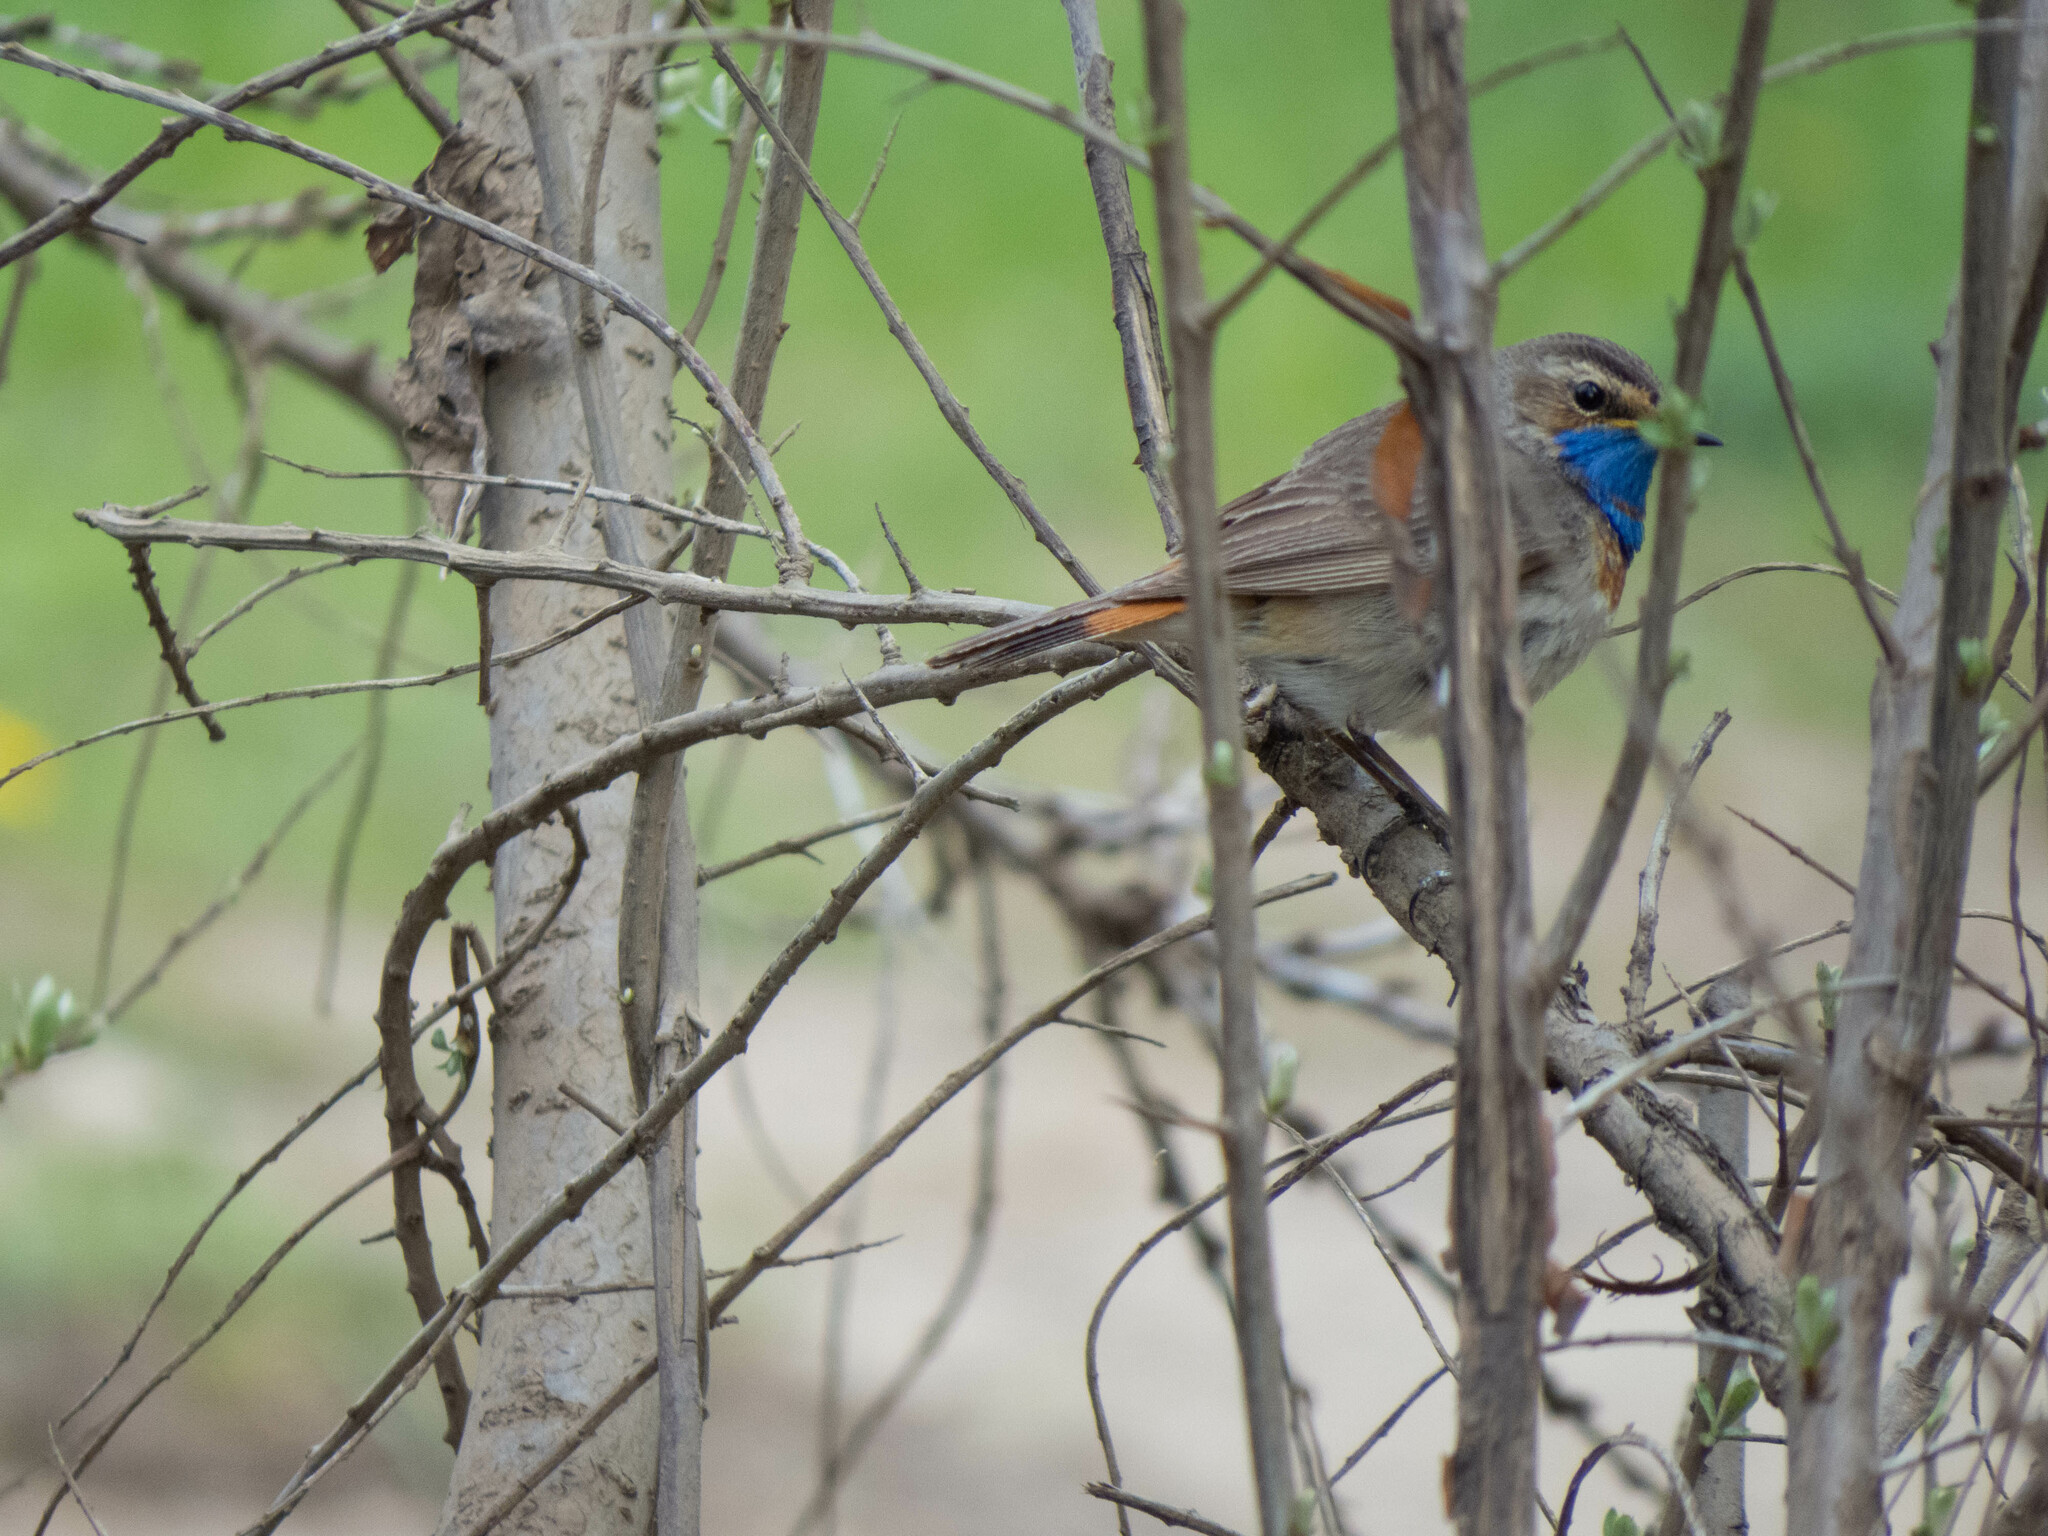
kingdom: Animalia
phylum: Chordata
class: Aves
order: Passeriformes
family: Muscicapidae
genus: Luscinia
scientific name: Luscinia svecica
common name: Bluethroat
